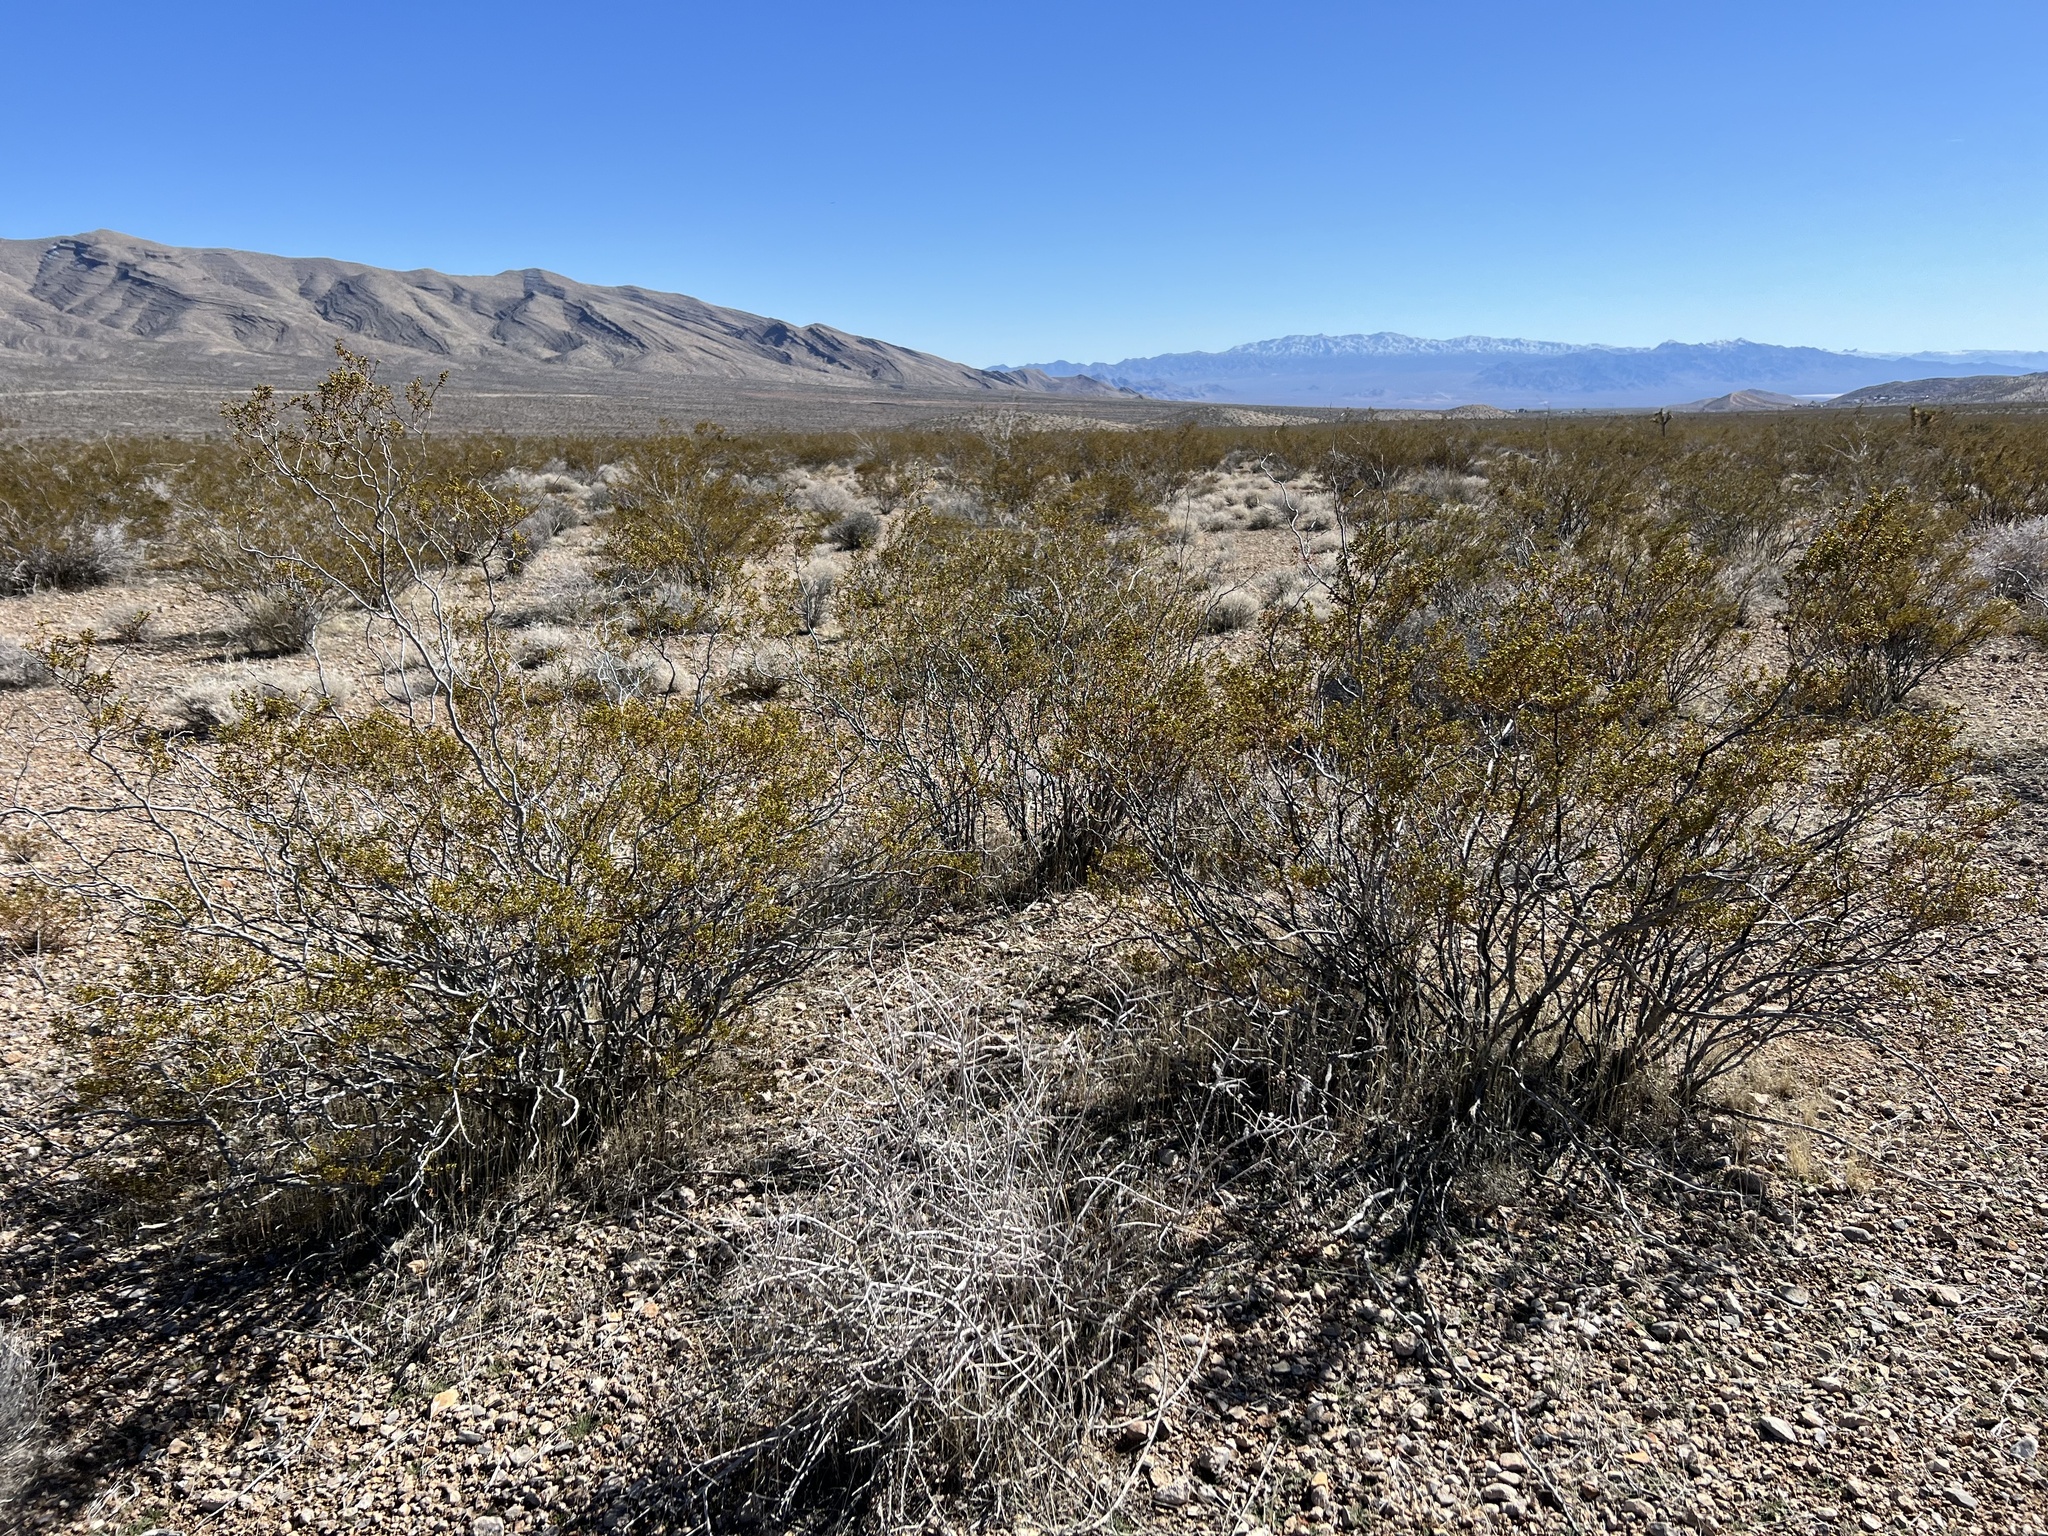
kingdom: Plantae
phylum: Tracheophyta
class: Magnoliopsida
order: Zygophyllales
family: Zygophyllaceae
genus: Larrea
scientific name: Larrea tridentata
